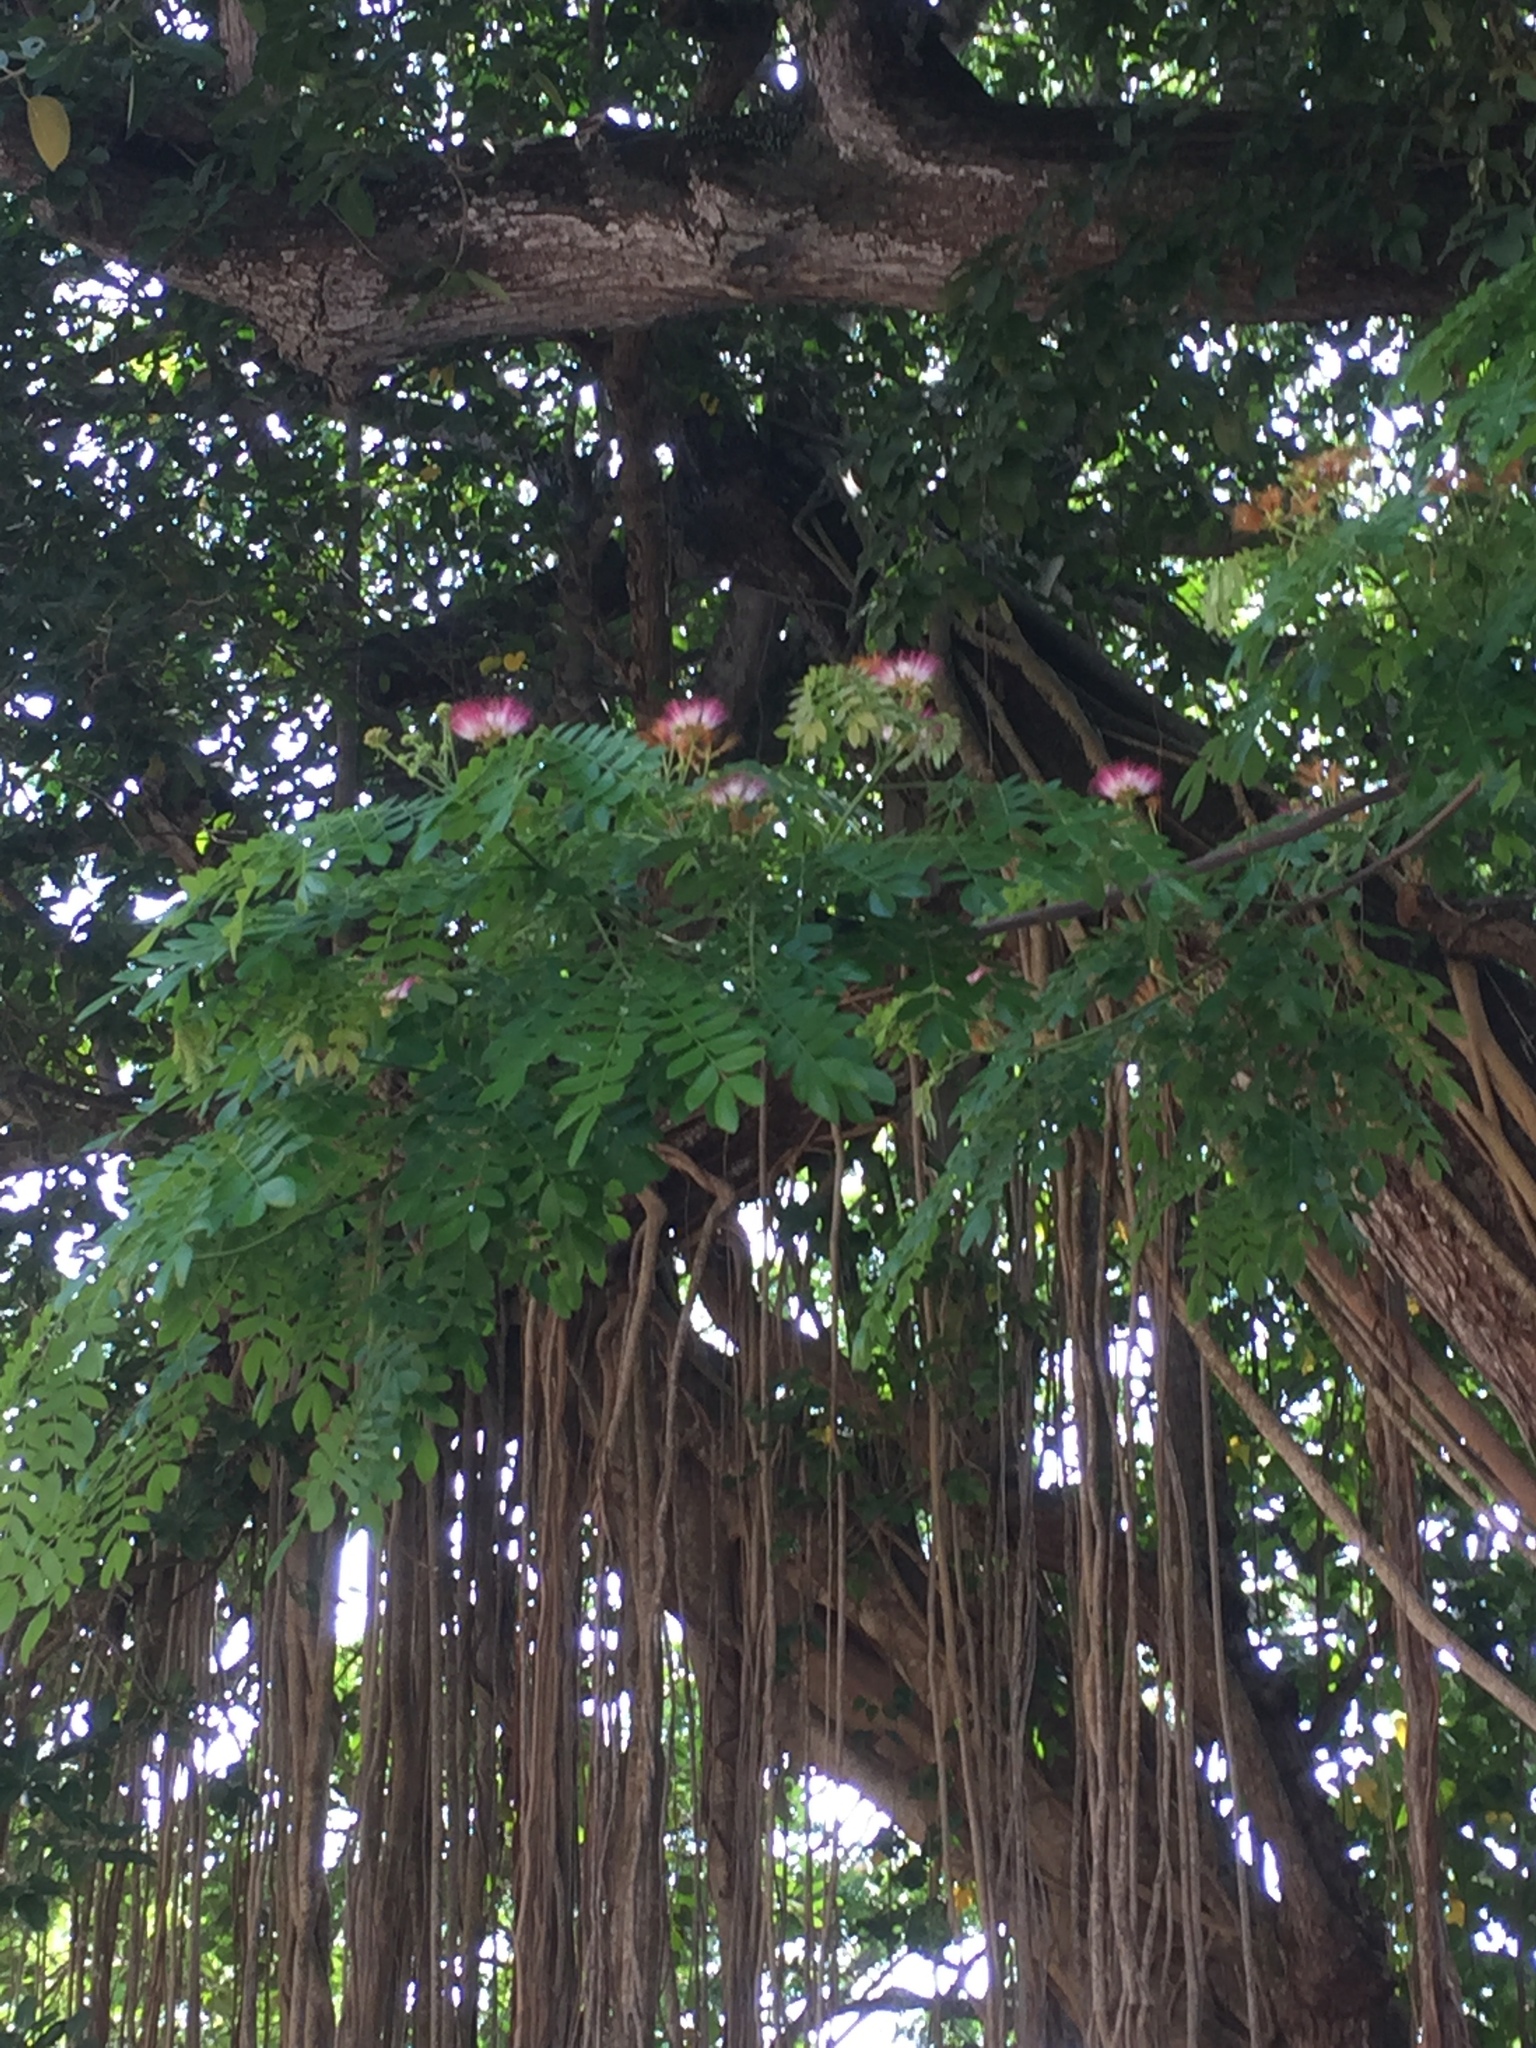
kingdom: Plantae
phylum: Tracheophyta
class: Magnoliopsida
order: Fabales
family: Fabaceae
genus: Samanea
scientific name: Samanea saman
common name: Raintree
